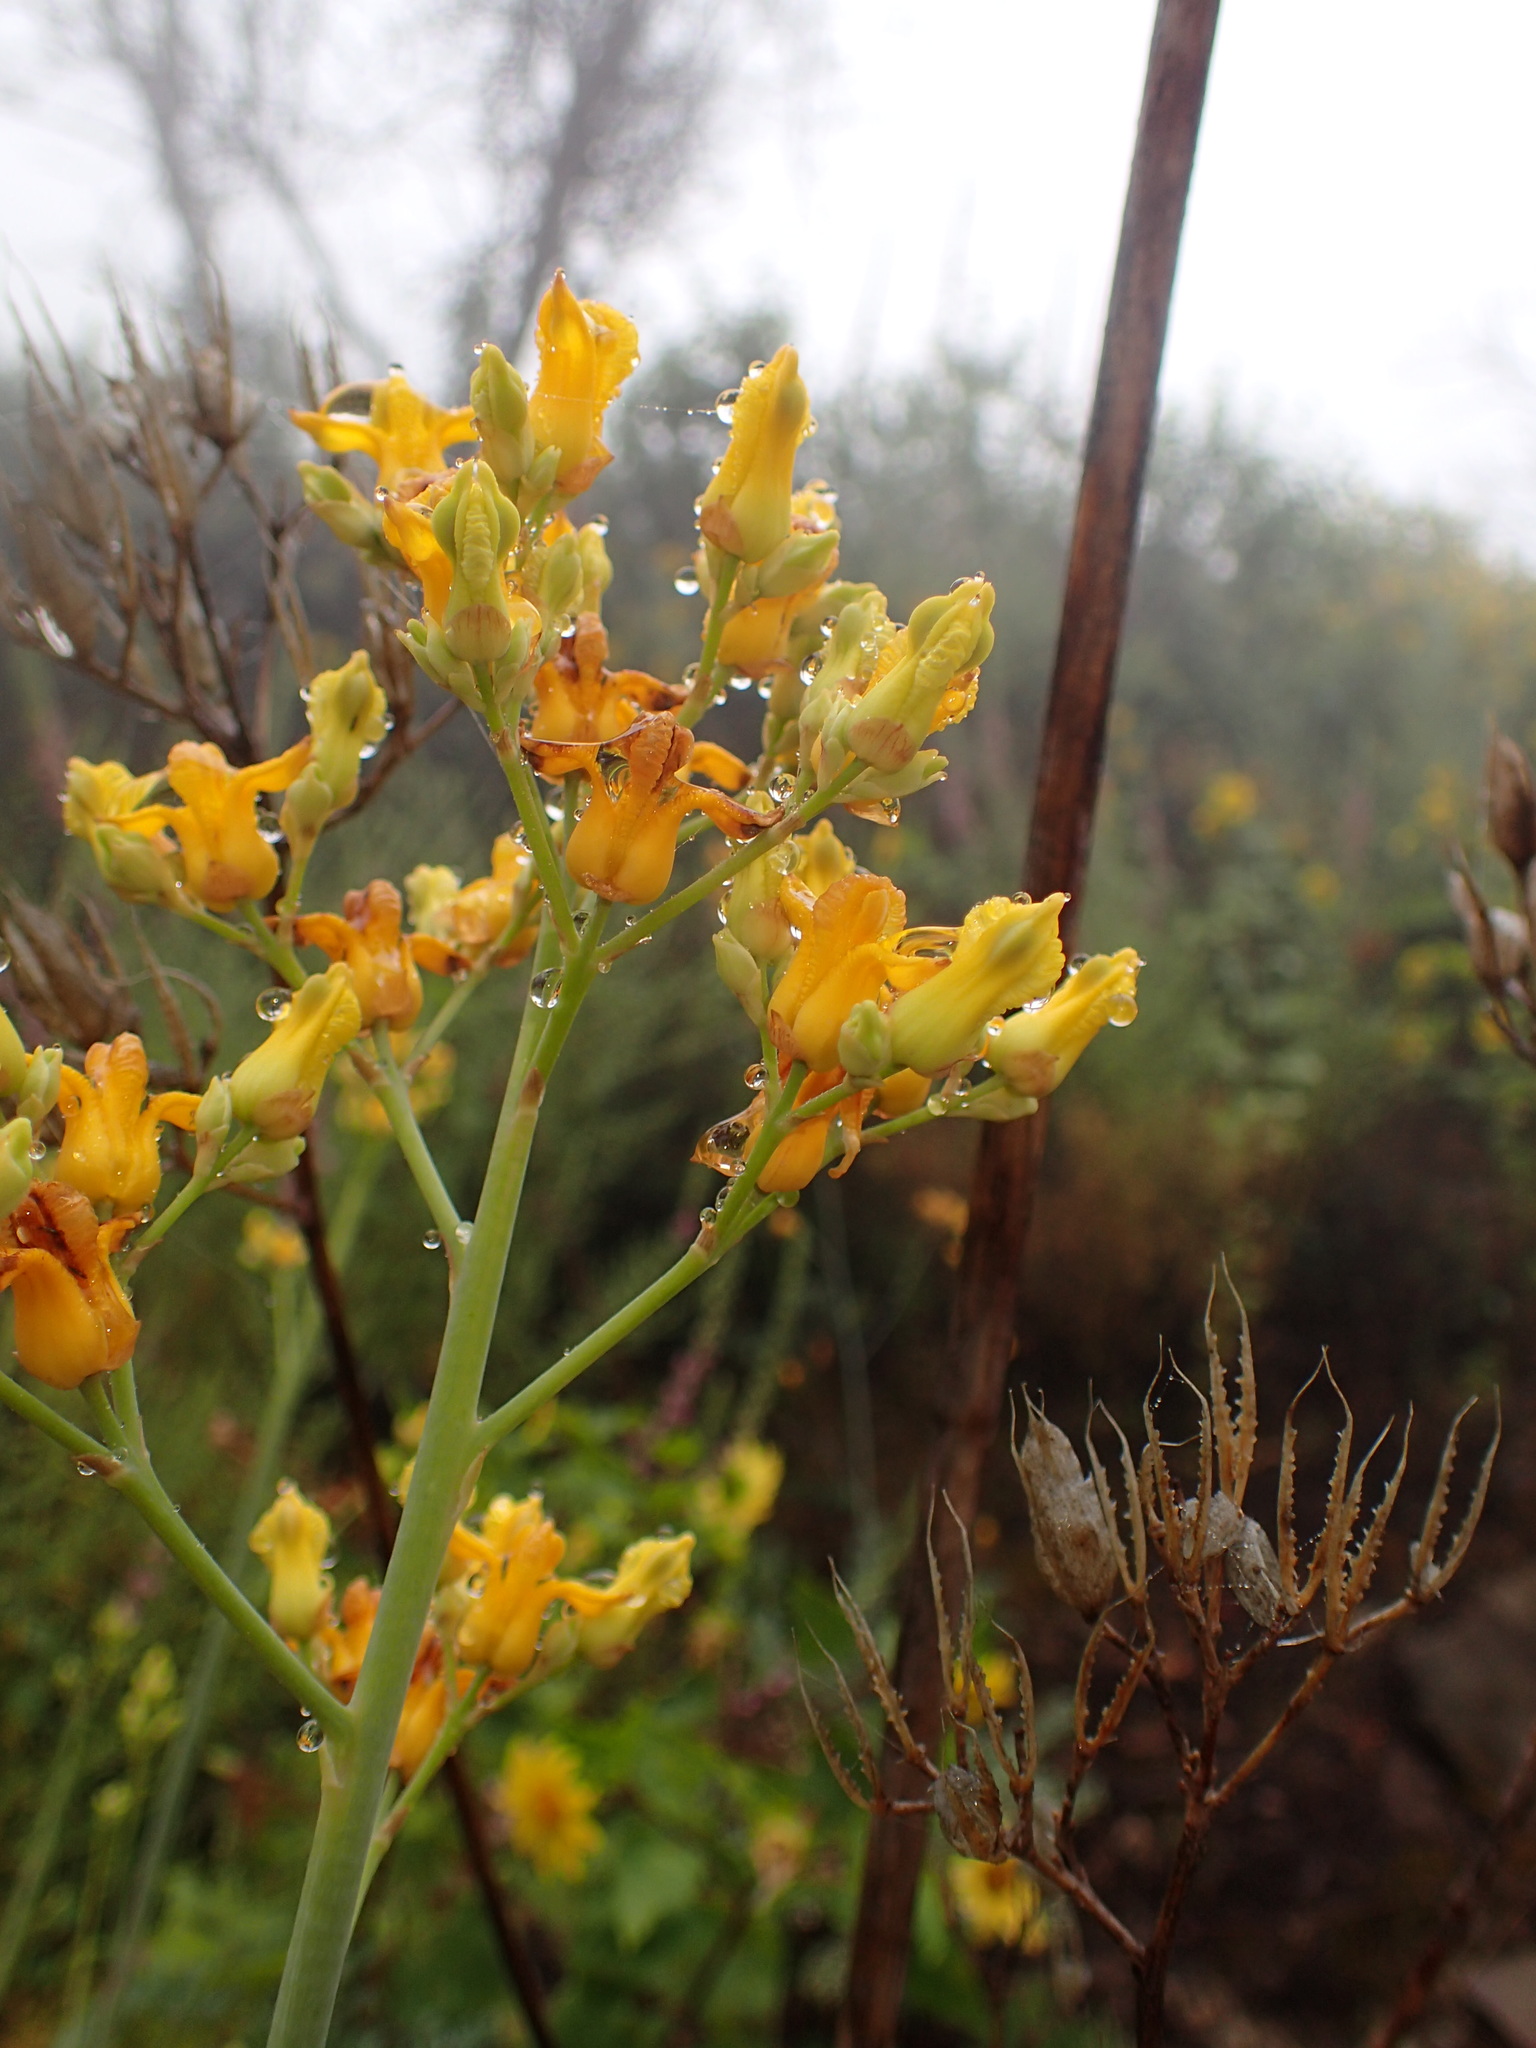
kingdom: Plantae
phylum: Tracheophyta
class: Magnoliopsida
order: Ranunculales
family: Papaveraceae
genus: Ehrendorferia
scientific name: Ehrendorferia chrysantha
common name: Golden eardrops
